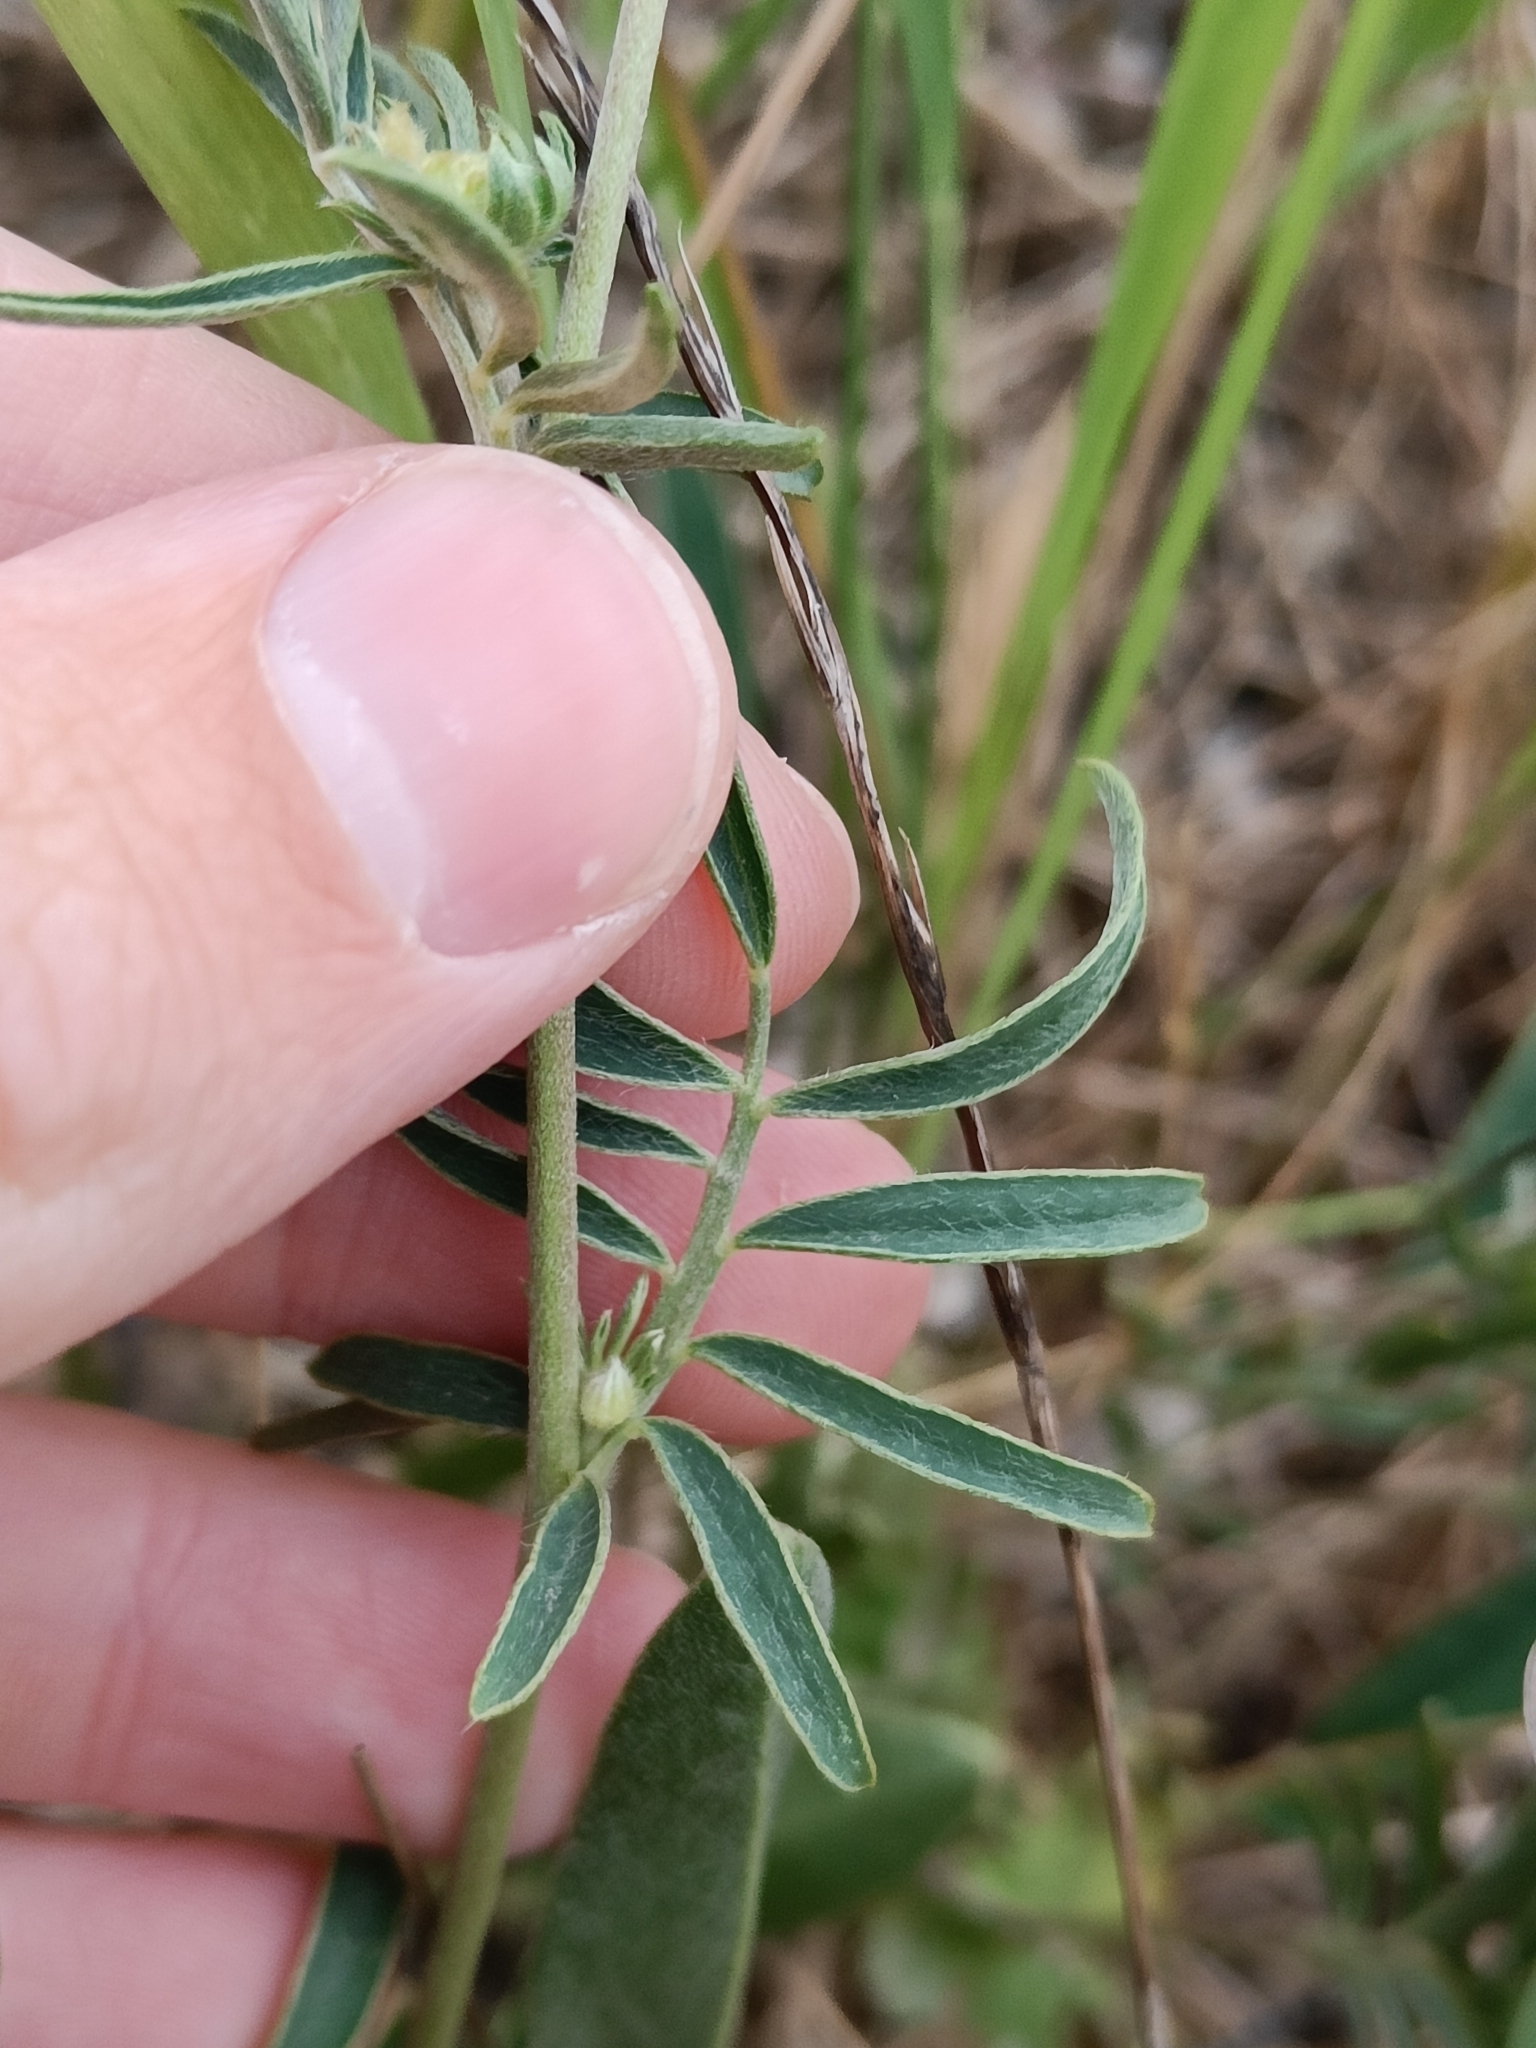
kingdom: Plantae
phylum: Tracheophyta
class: Magnoliopsida
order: Fabales
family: Fabaceae
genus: Anthyllis
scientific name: Anthyllis vulneraria
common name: Kidney vetch
